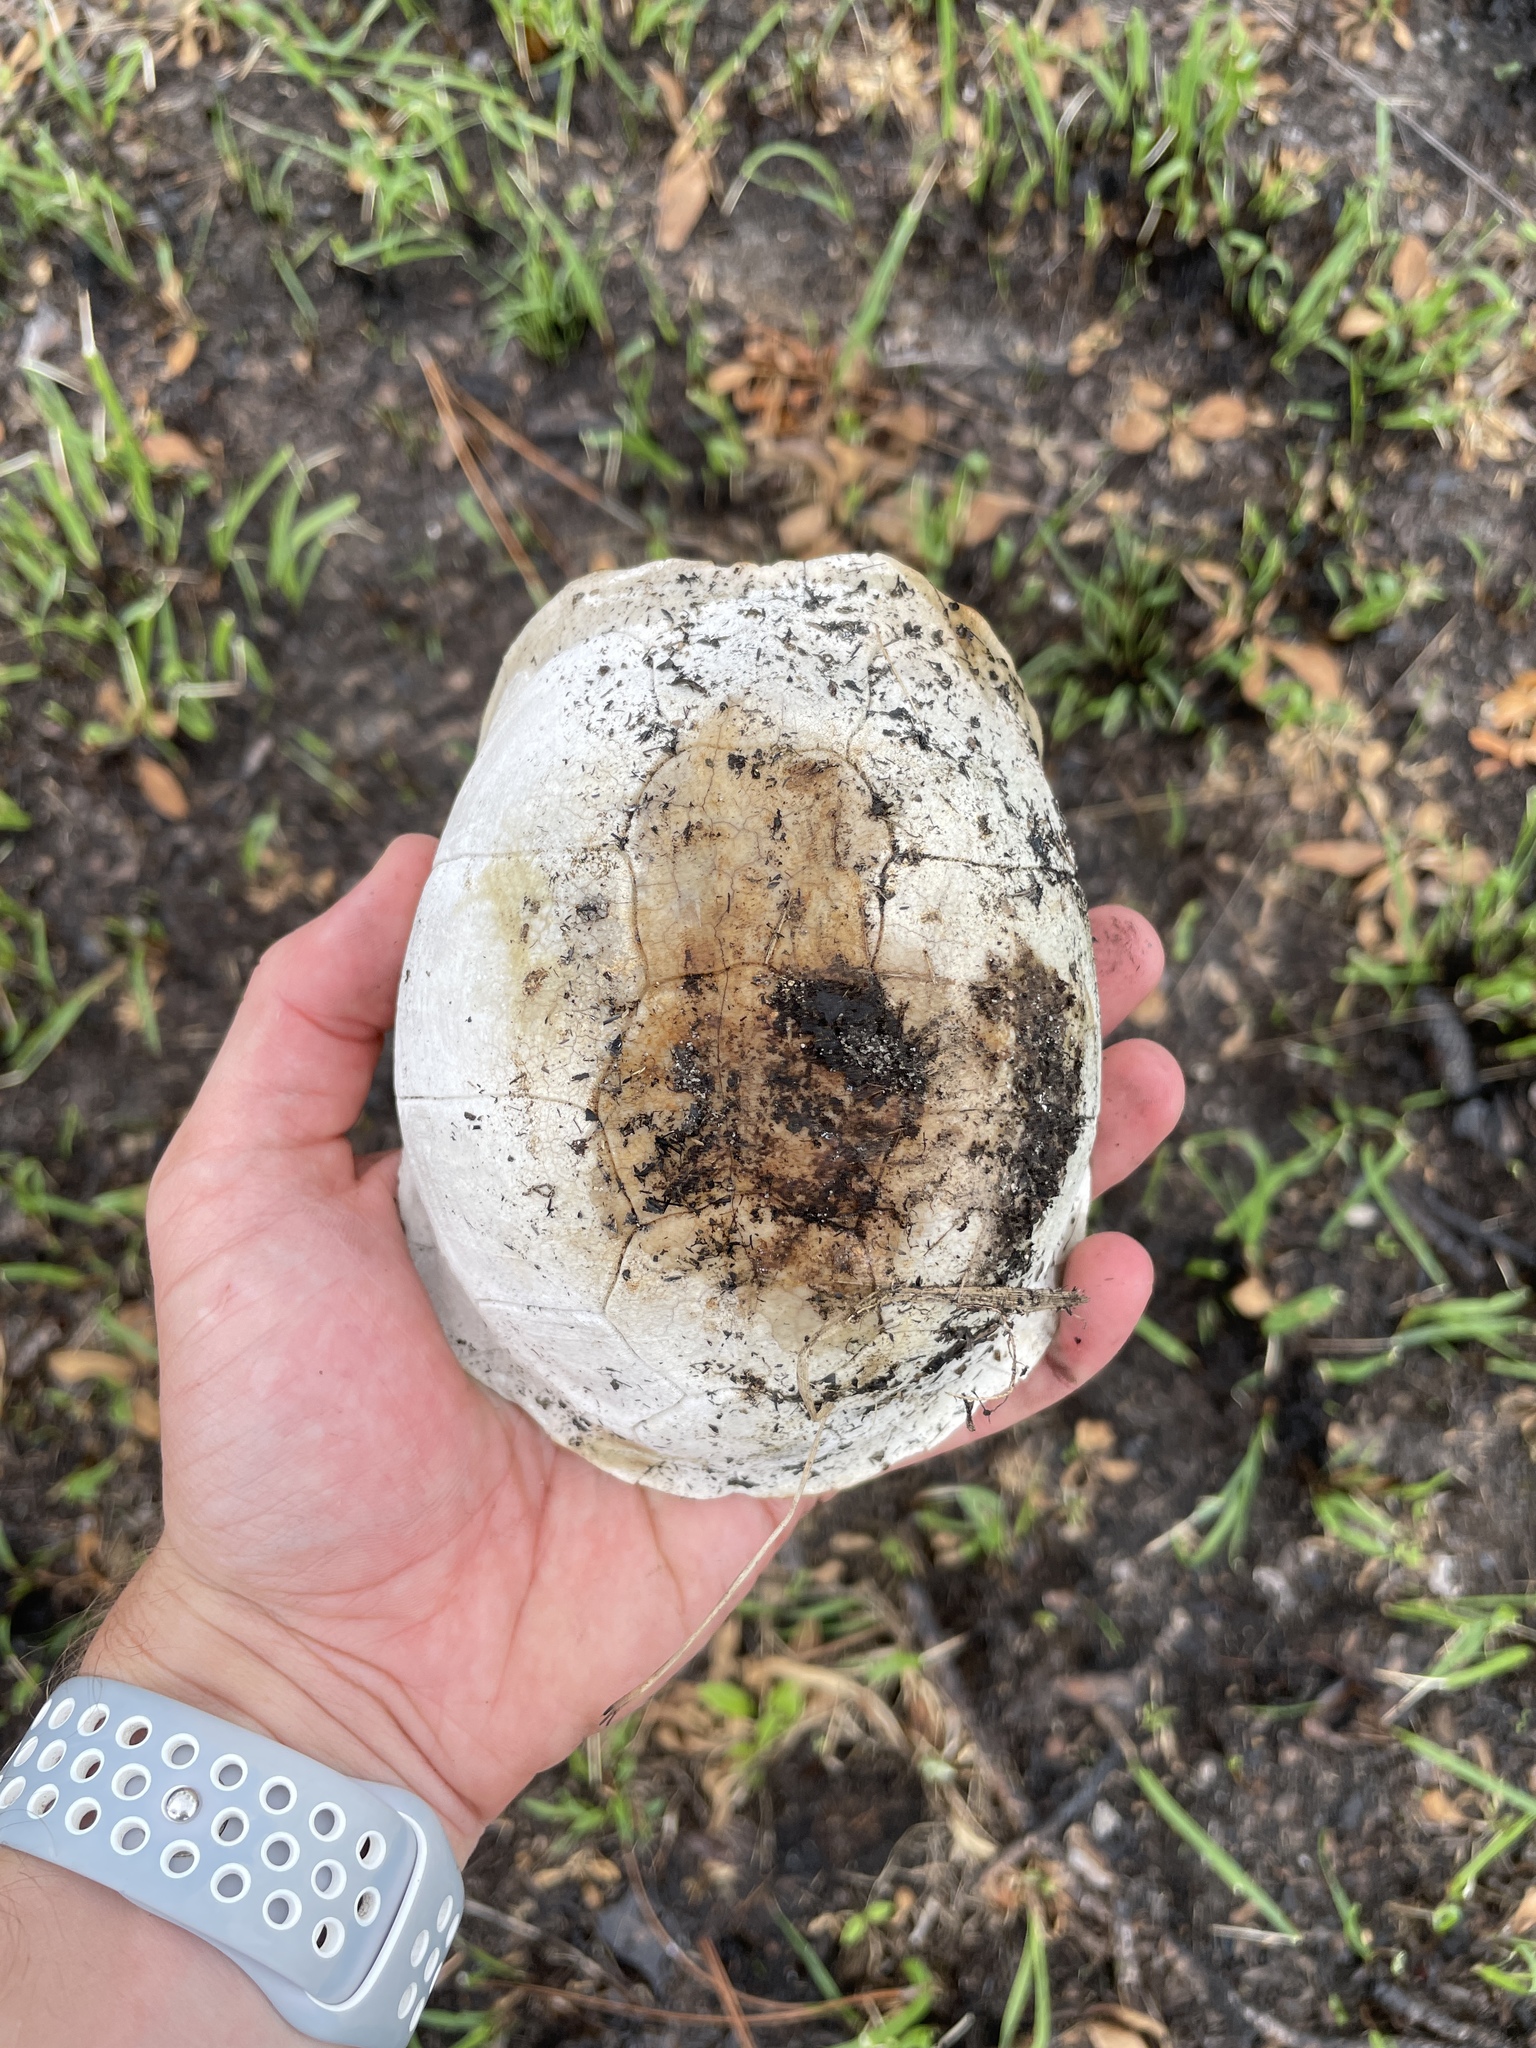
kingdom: Animalia
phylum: Chordata
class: Testudines
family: Emydidae
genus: Terrapene
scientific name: Terrapene carolina
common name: Common box turtle
